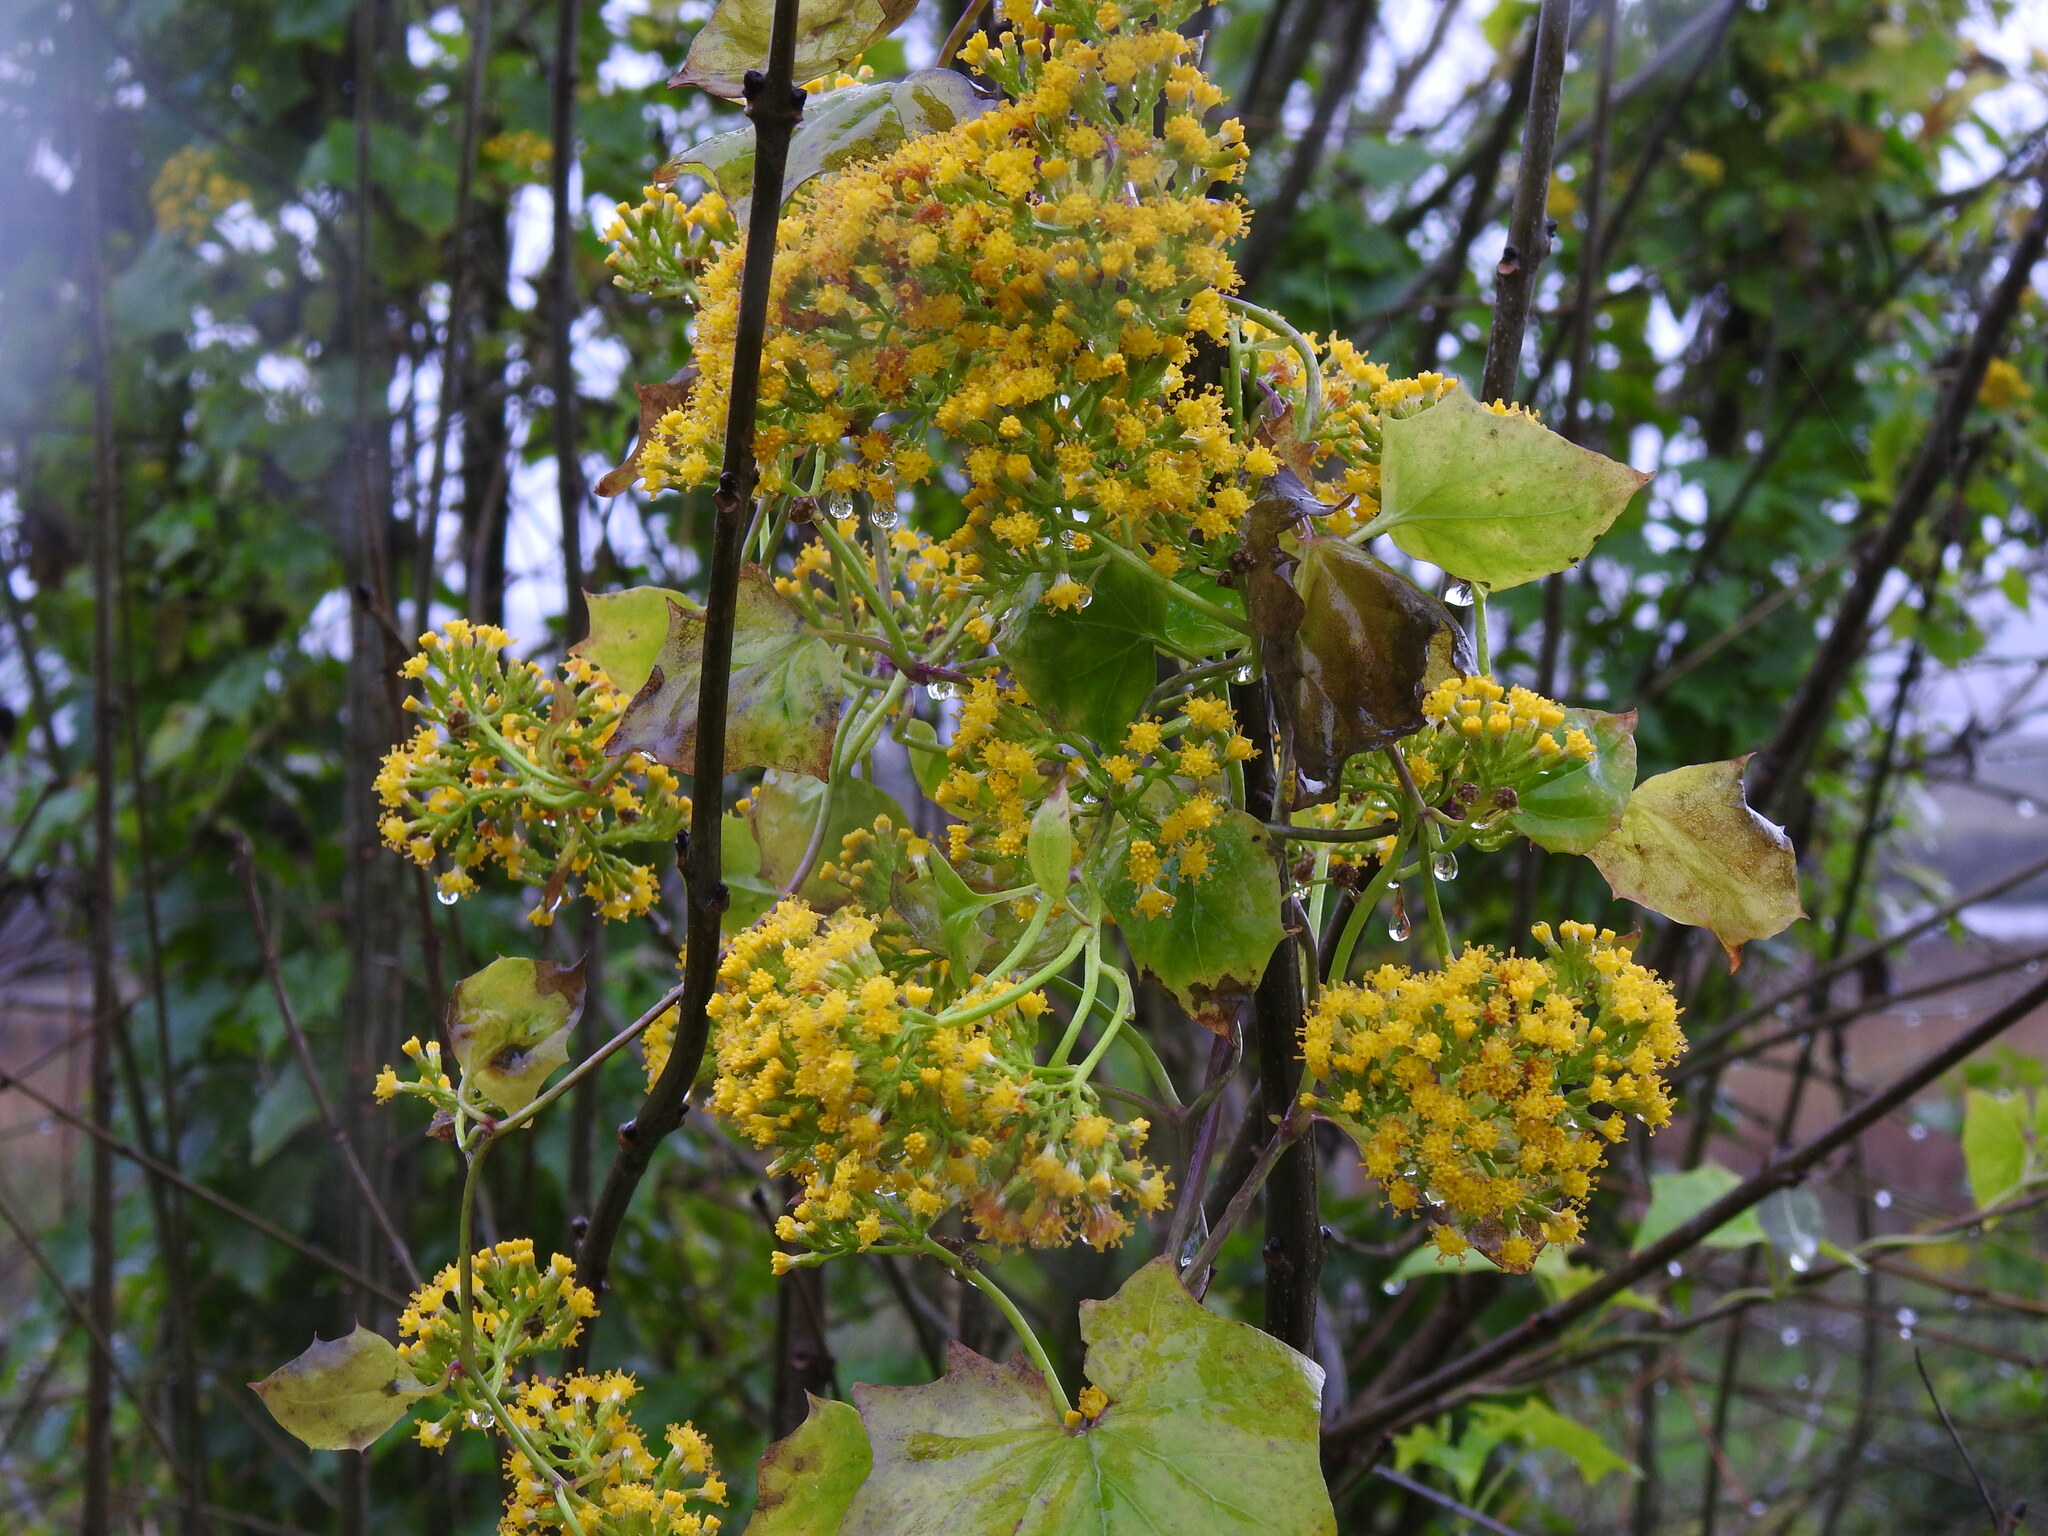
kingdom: Plantae
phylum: Tracheophyta
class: Magnoliopsida
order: Asterales
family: Asteraceae
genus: Delairea
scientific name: Delairea odorata
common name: Cape-ivy
